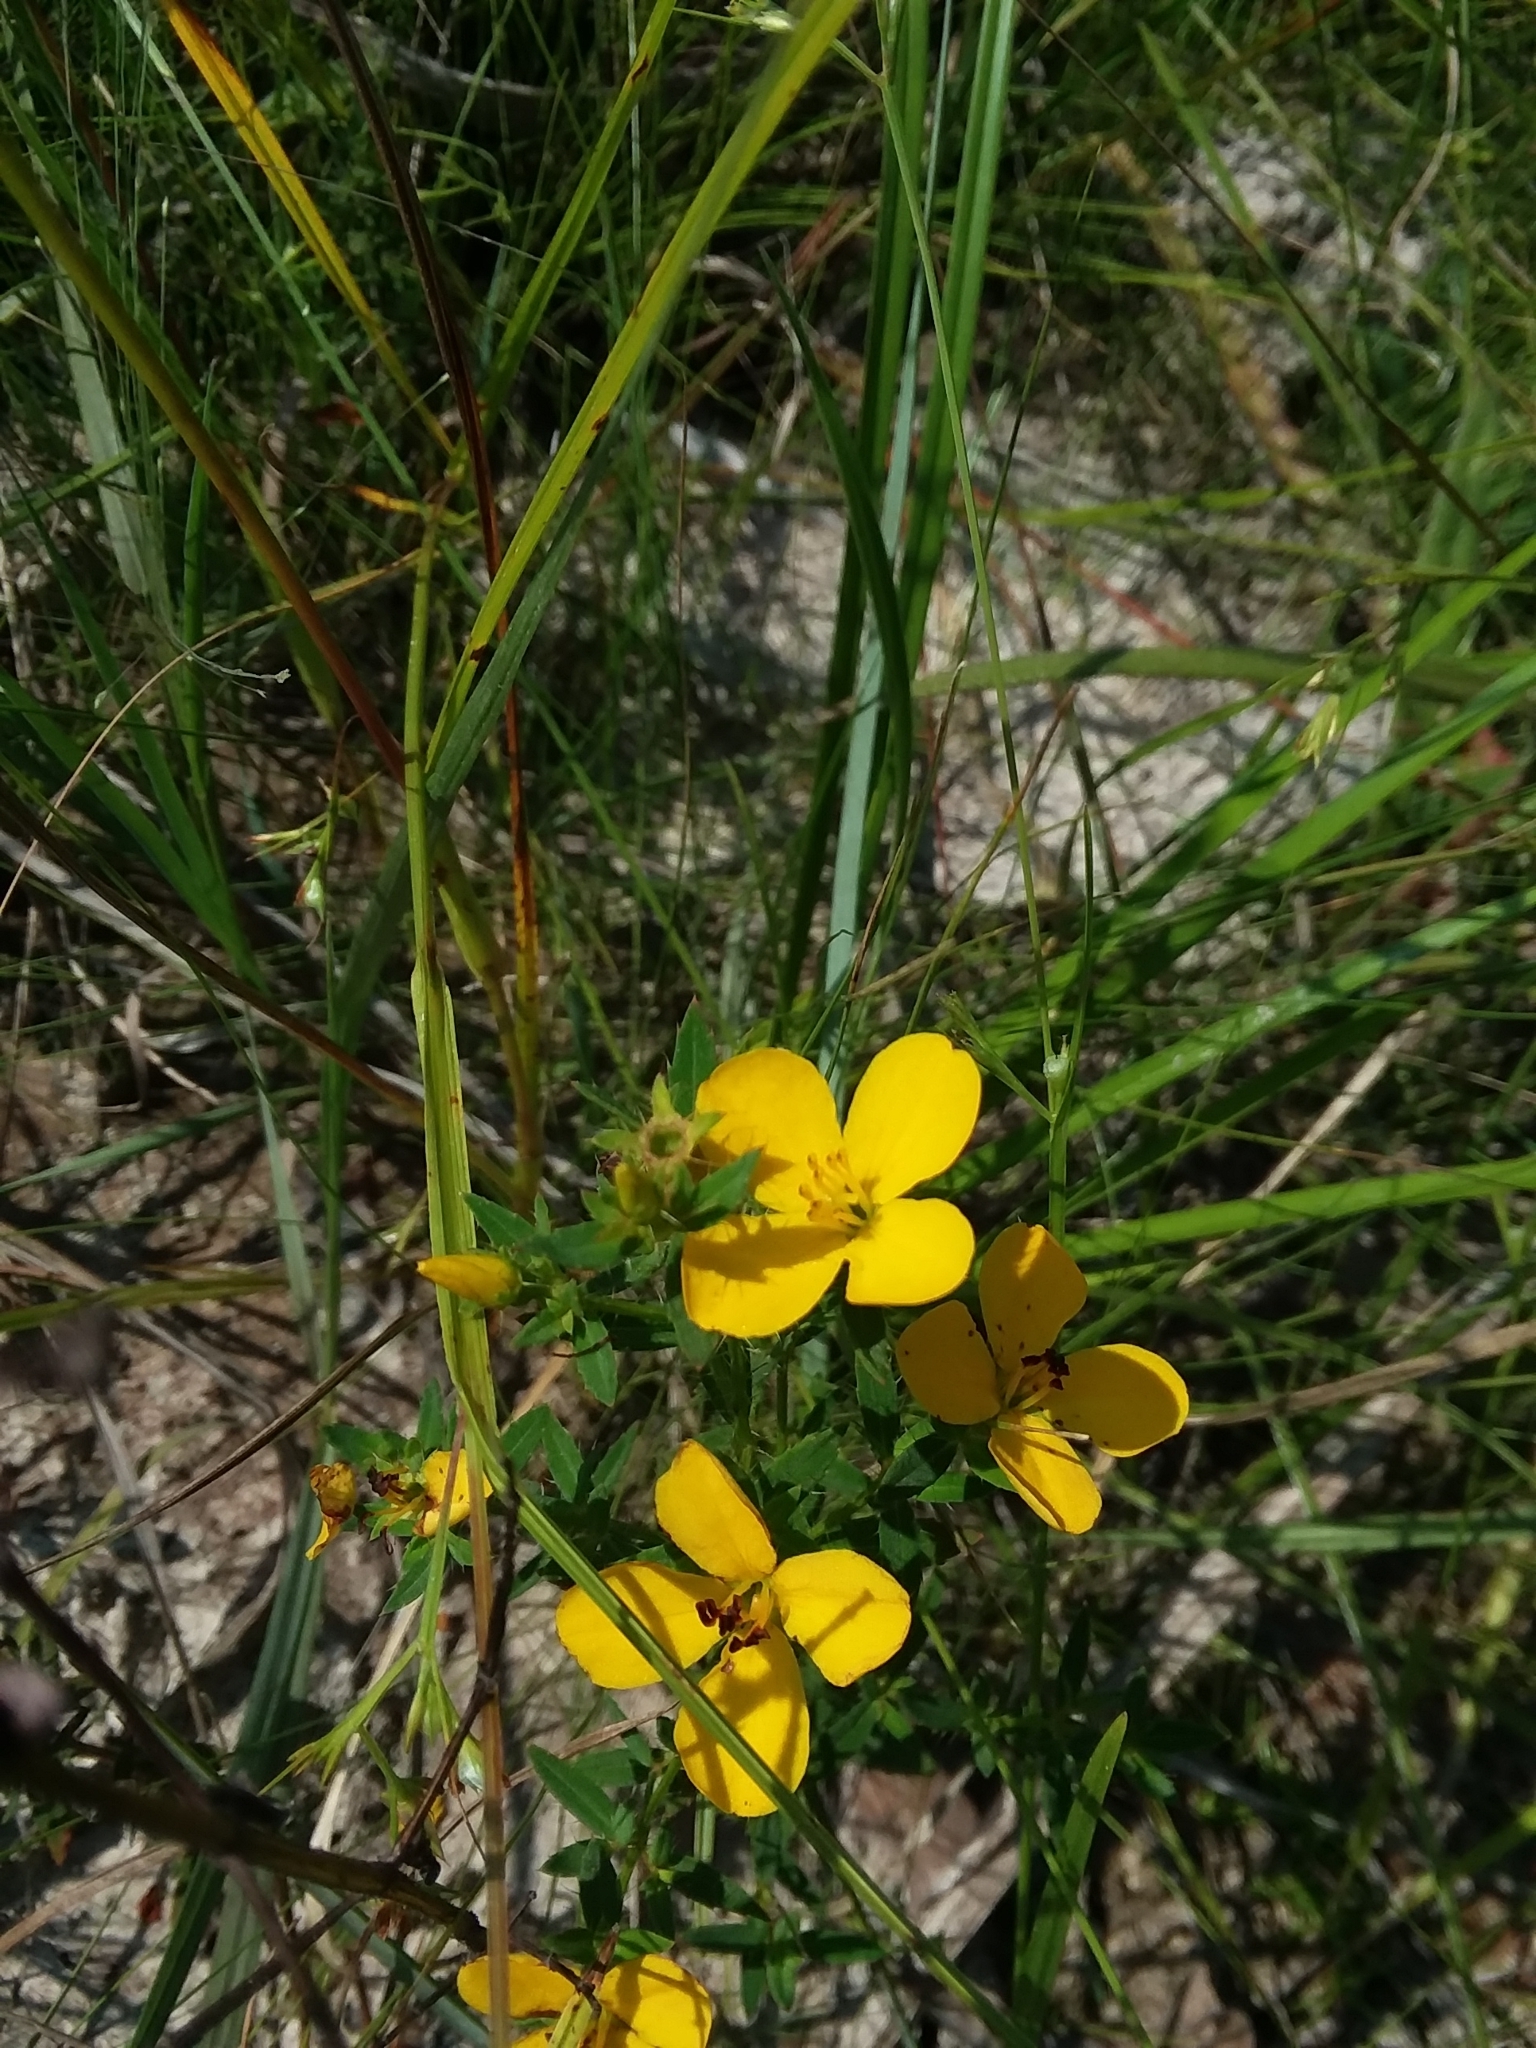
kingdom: Plantae
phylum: Tracheophyta
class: Magnoliopsida
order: Myrtales
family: Melastomataceae
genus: Rhexia
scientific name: Rhexia lutea
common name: Golden meadow-beauty
